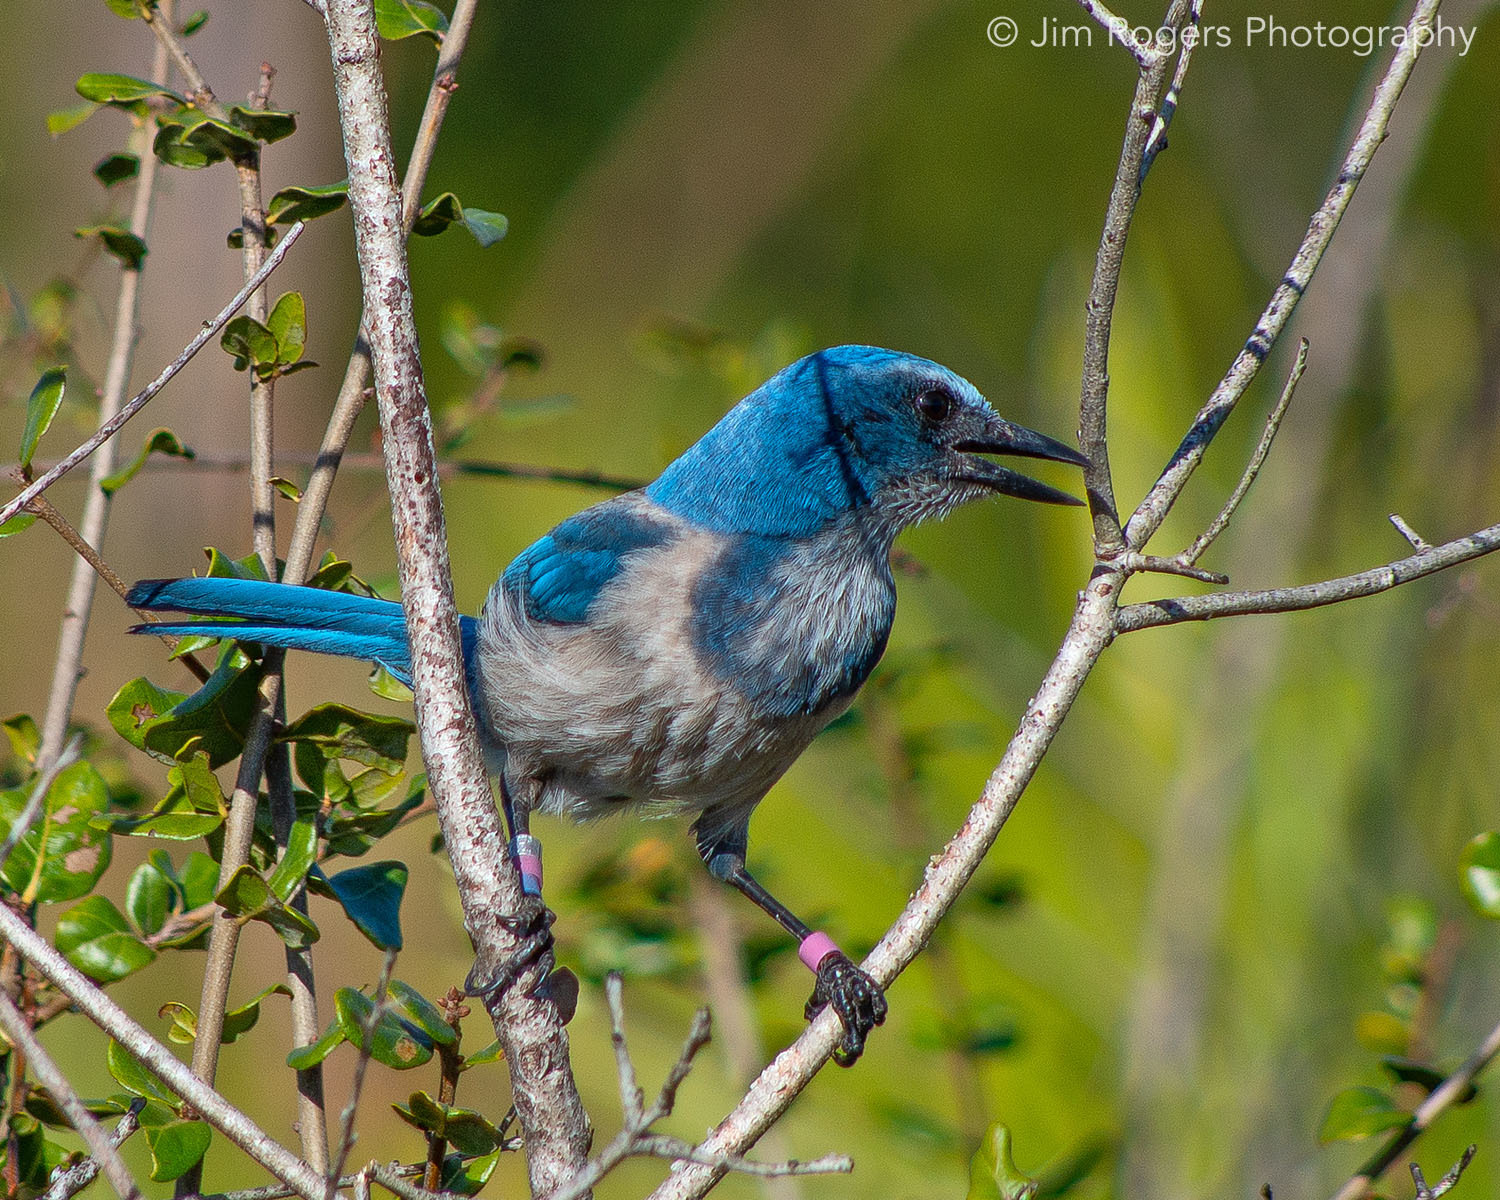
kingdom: Animalia
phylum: Chordata
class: Aves
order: Passeriformes
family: Corvidae
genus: Aphelocoma
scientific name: Aphelocoma coerulescens
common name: Florida scrub jay
